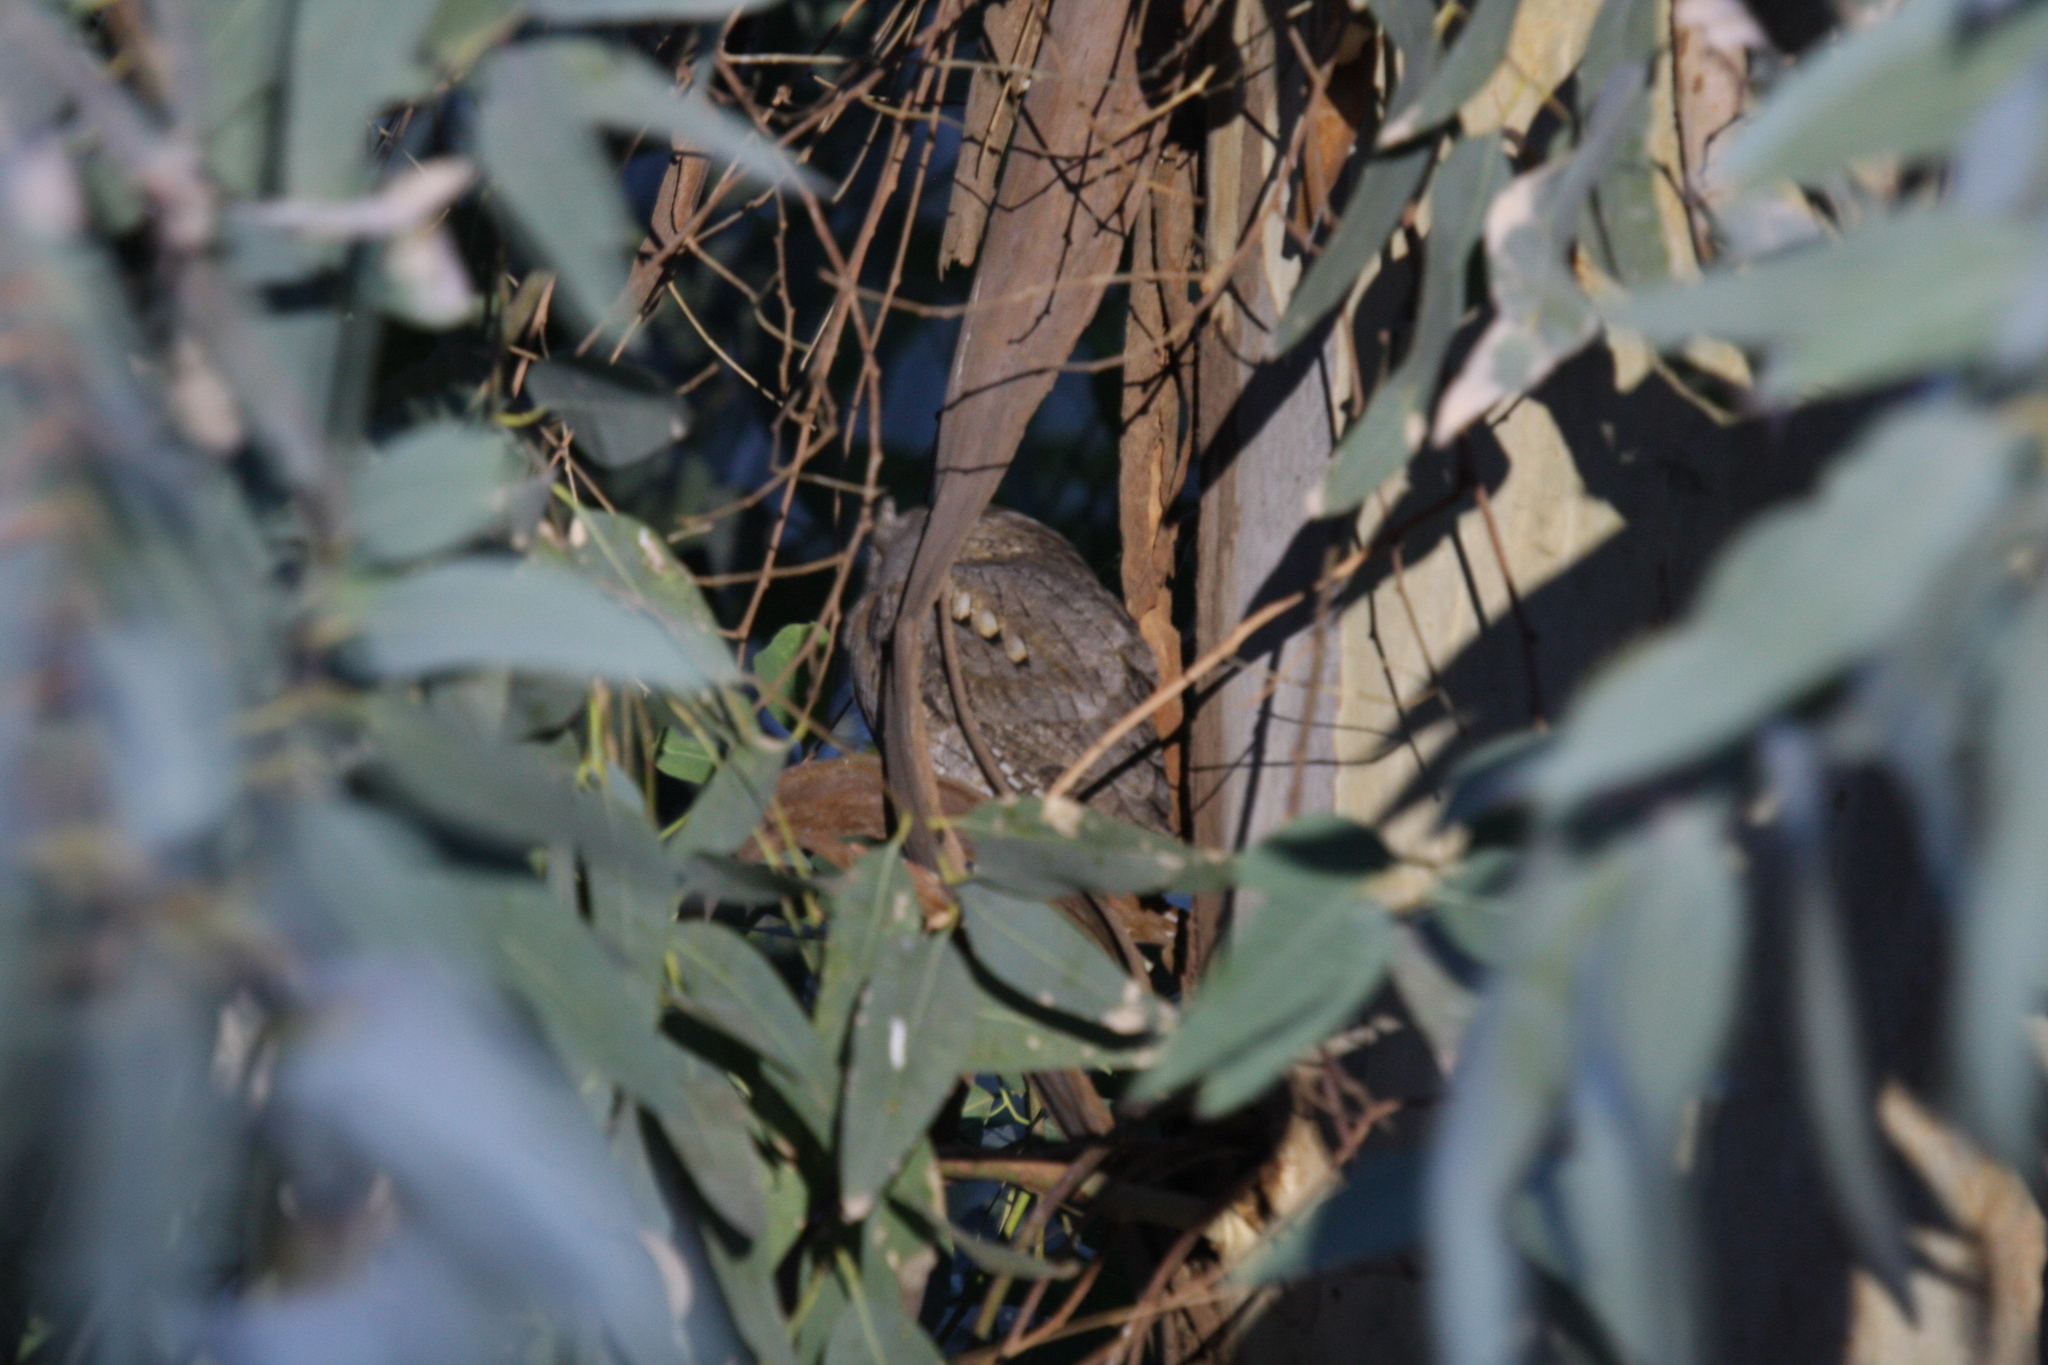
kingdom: Animalia
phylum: Chordata
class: Aves
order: Strigiformes
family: Strigidae
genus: Otus
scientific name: Otus scops
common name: Eurasian scops owl
